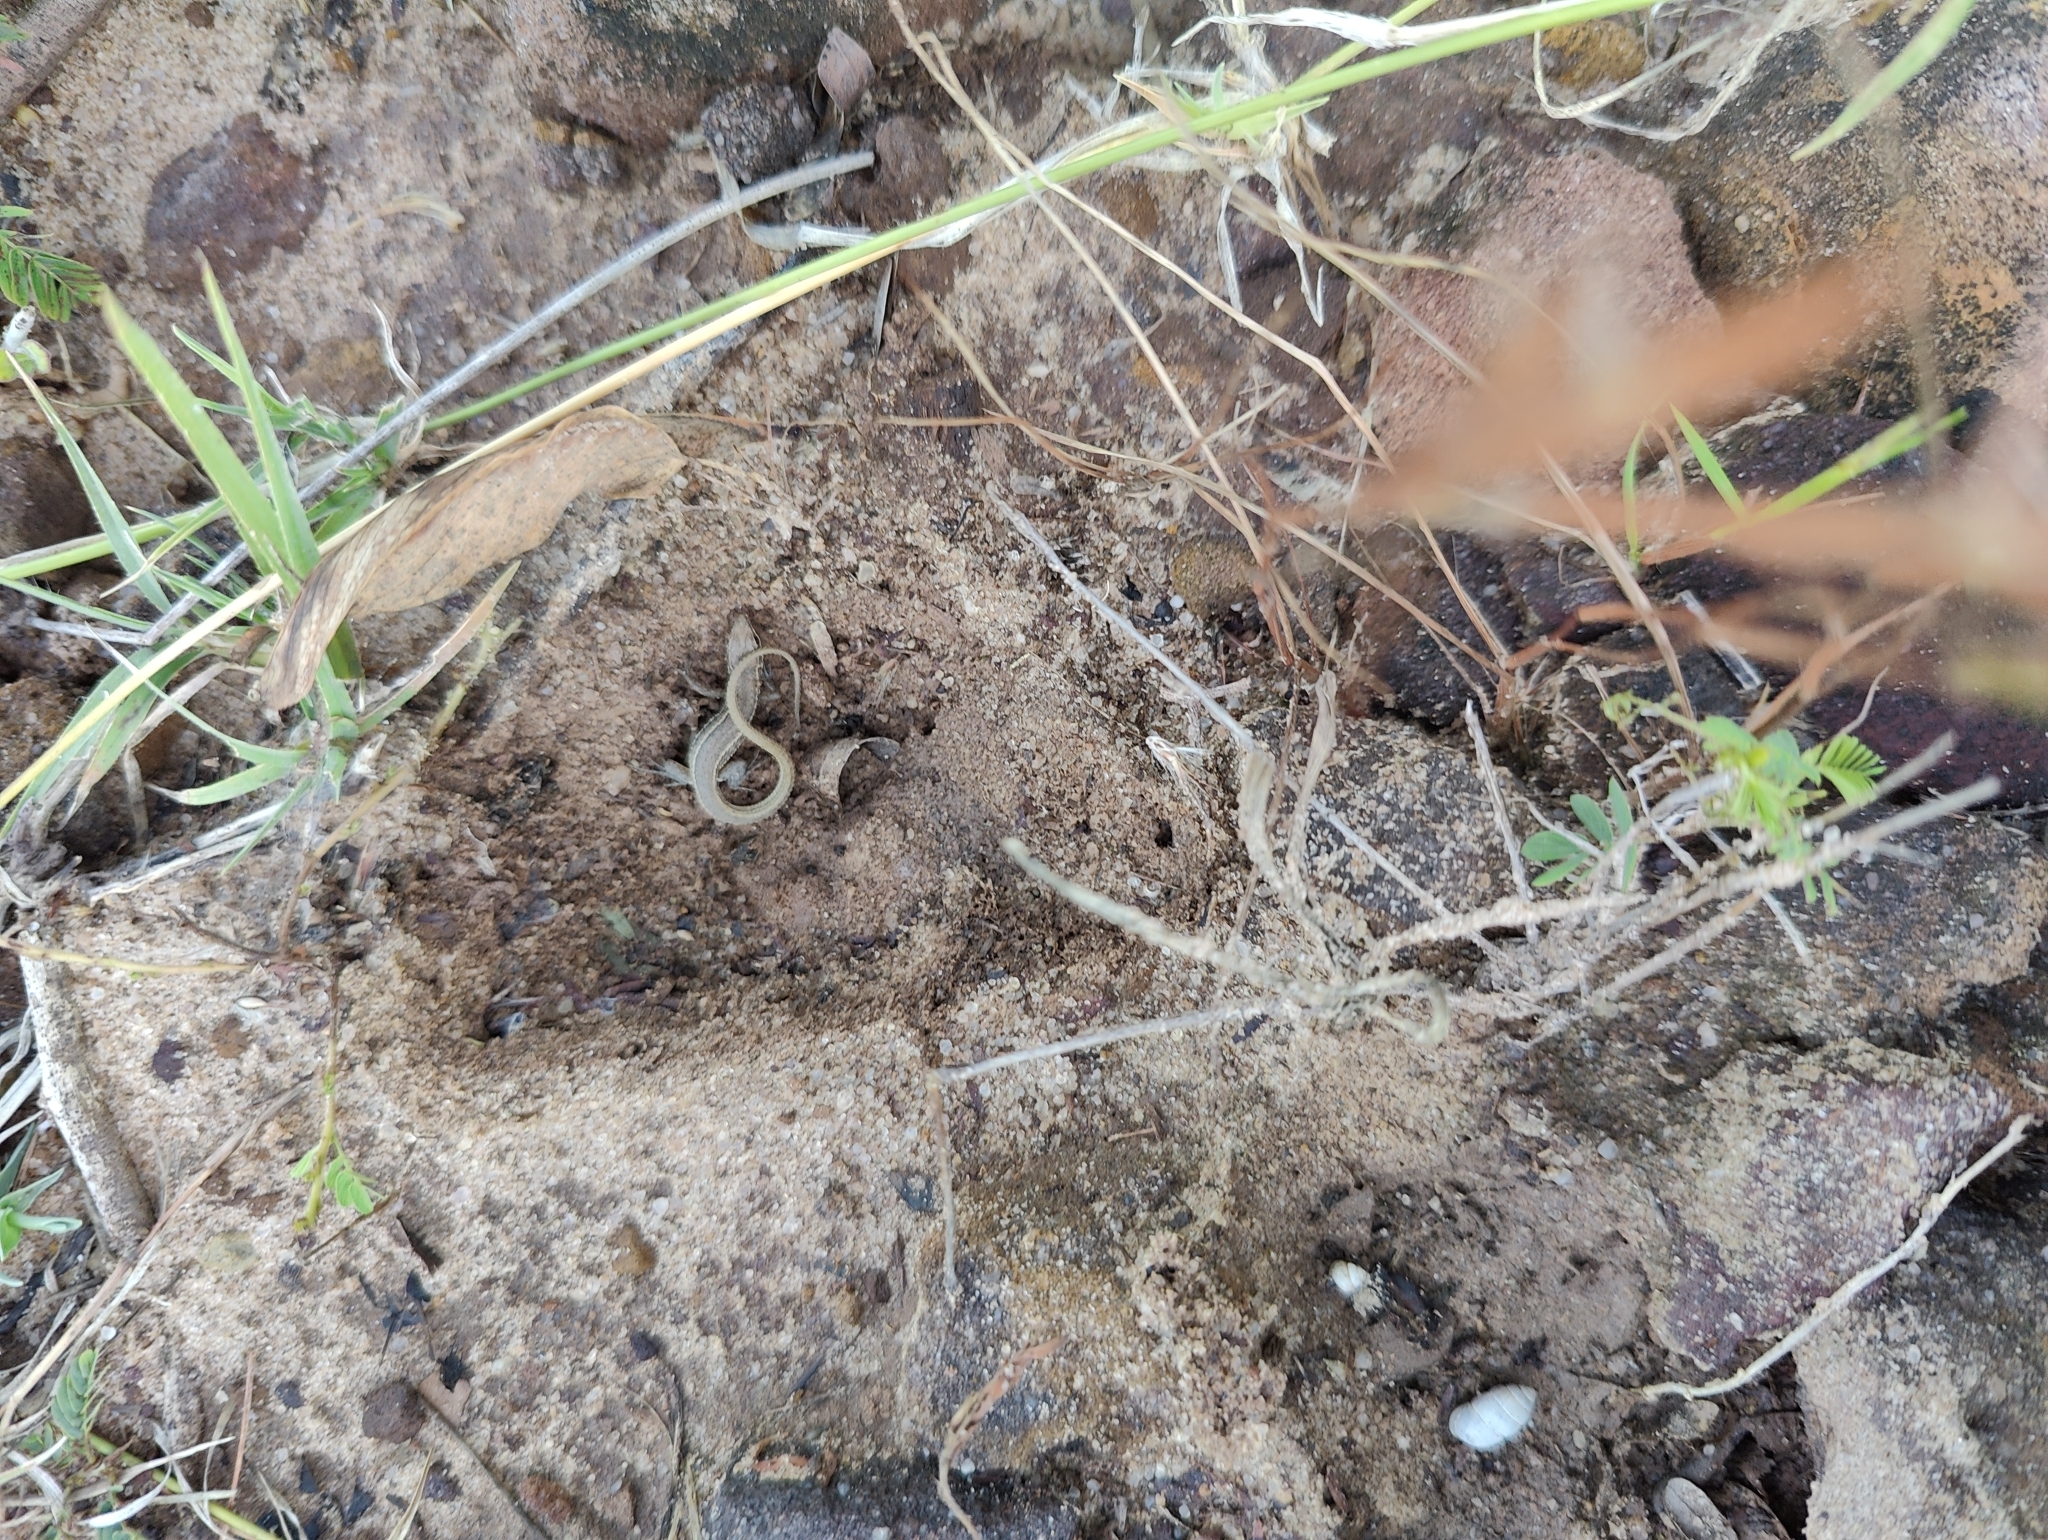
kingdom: Animalia
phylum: Chordata
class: Squamata
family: Lacertidae
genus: Ophisops
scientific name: Ophisops kutchensis
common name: Kutch small-scaled snake-eye
